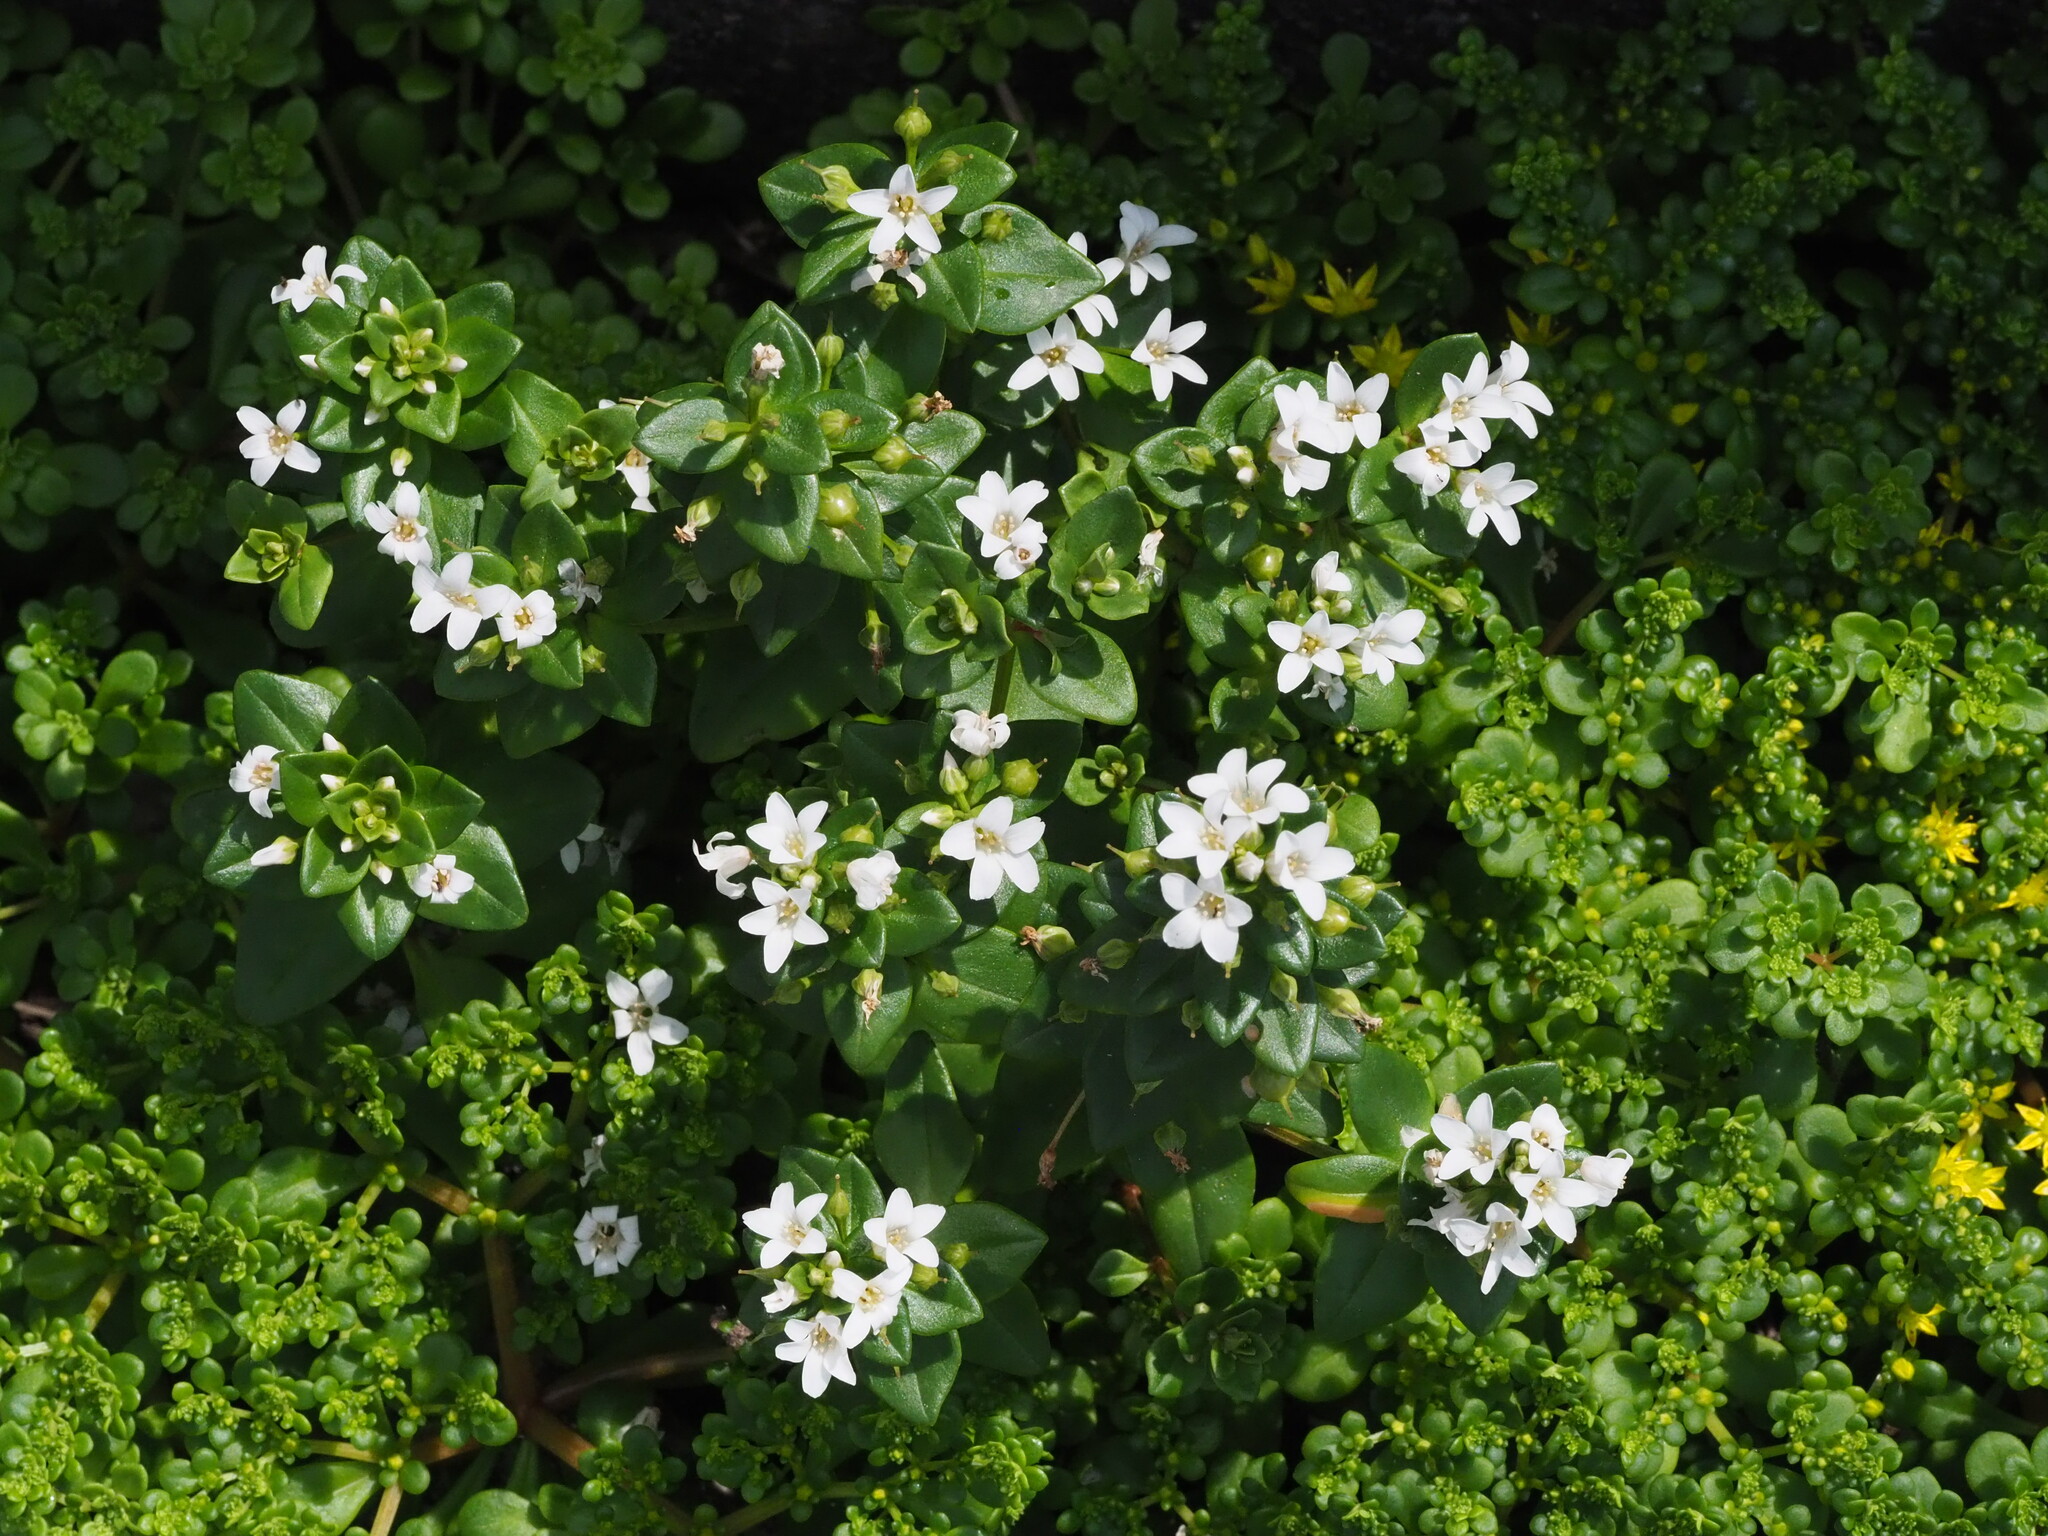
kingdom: Plantae
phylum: Tracheophyta
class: Magnoliopsida
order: Ericales
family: Primulaceae
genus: Lysimachia
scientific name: Lysimachia mauritiana
